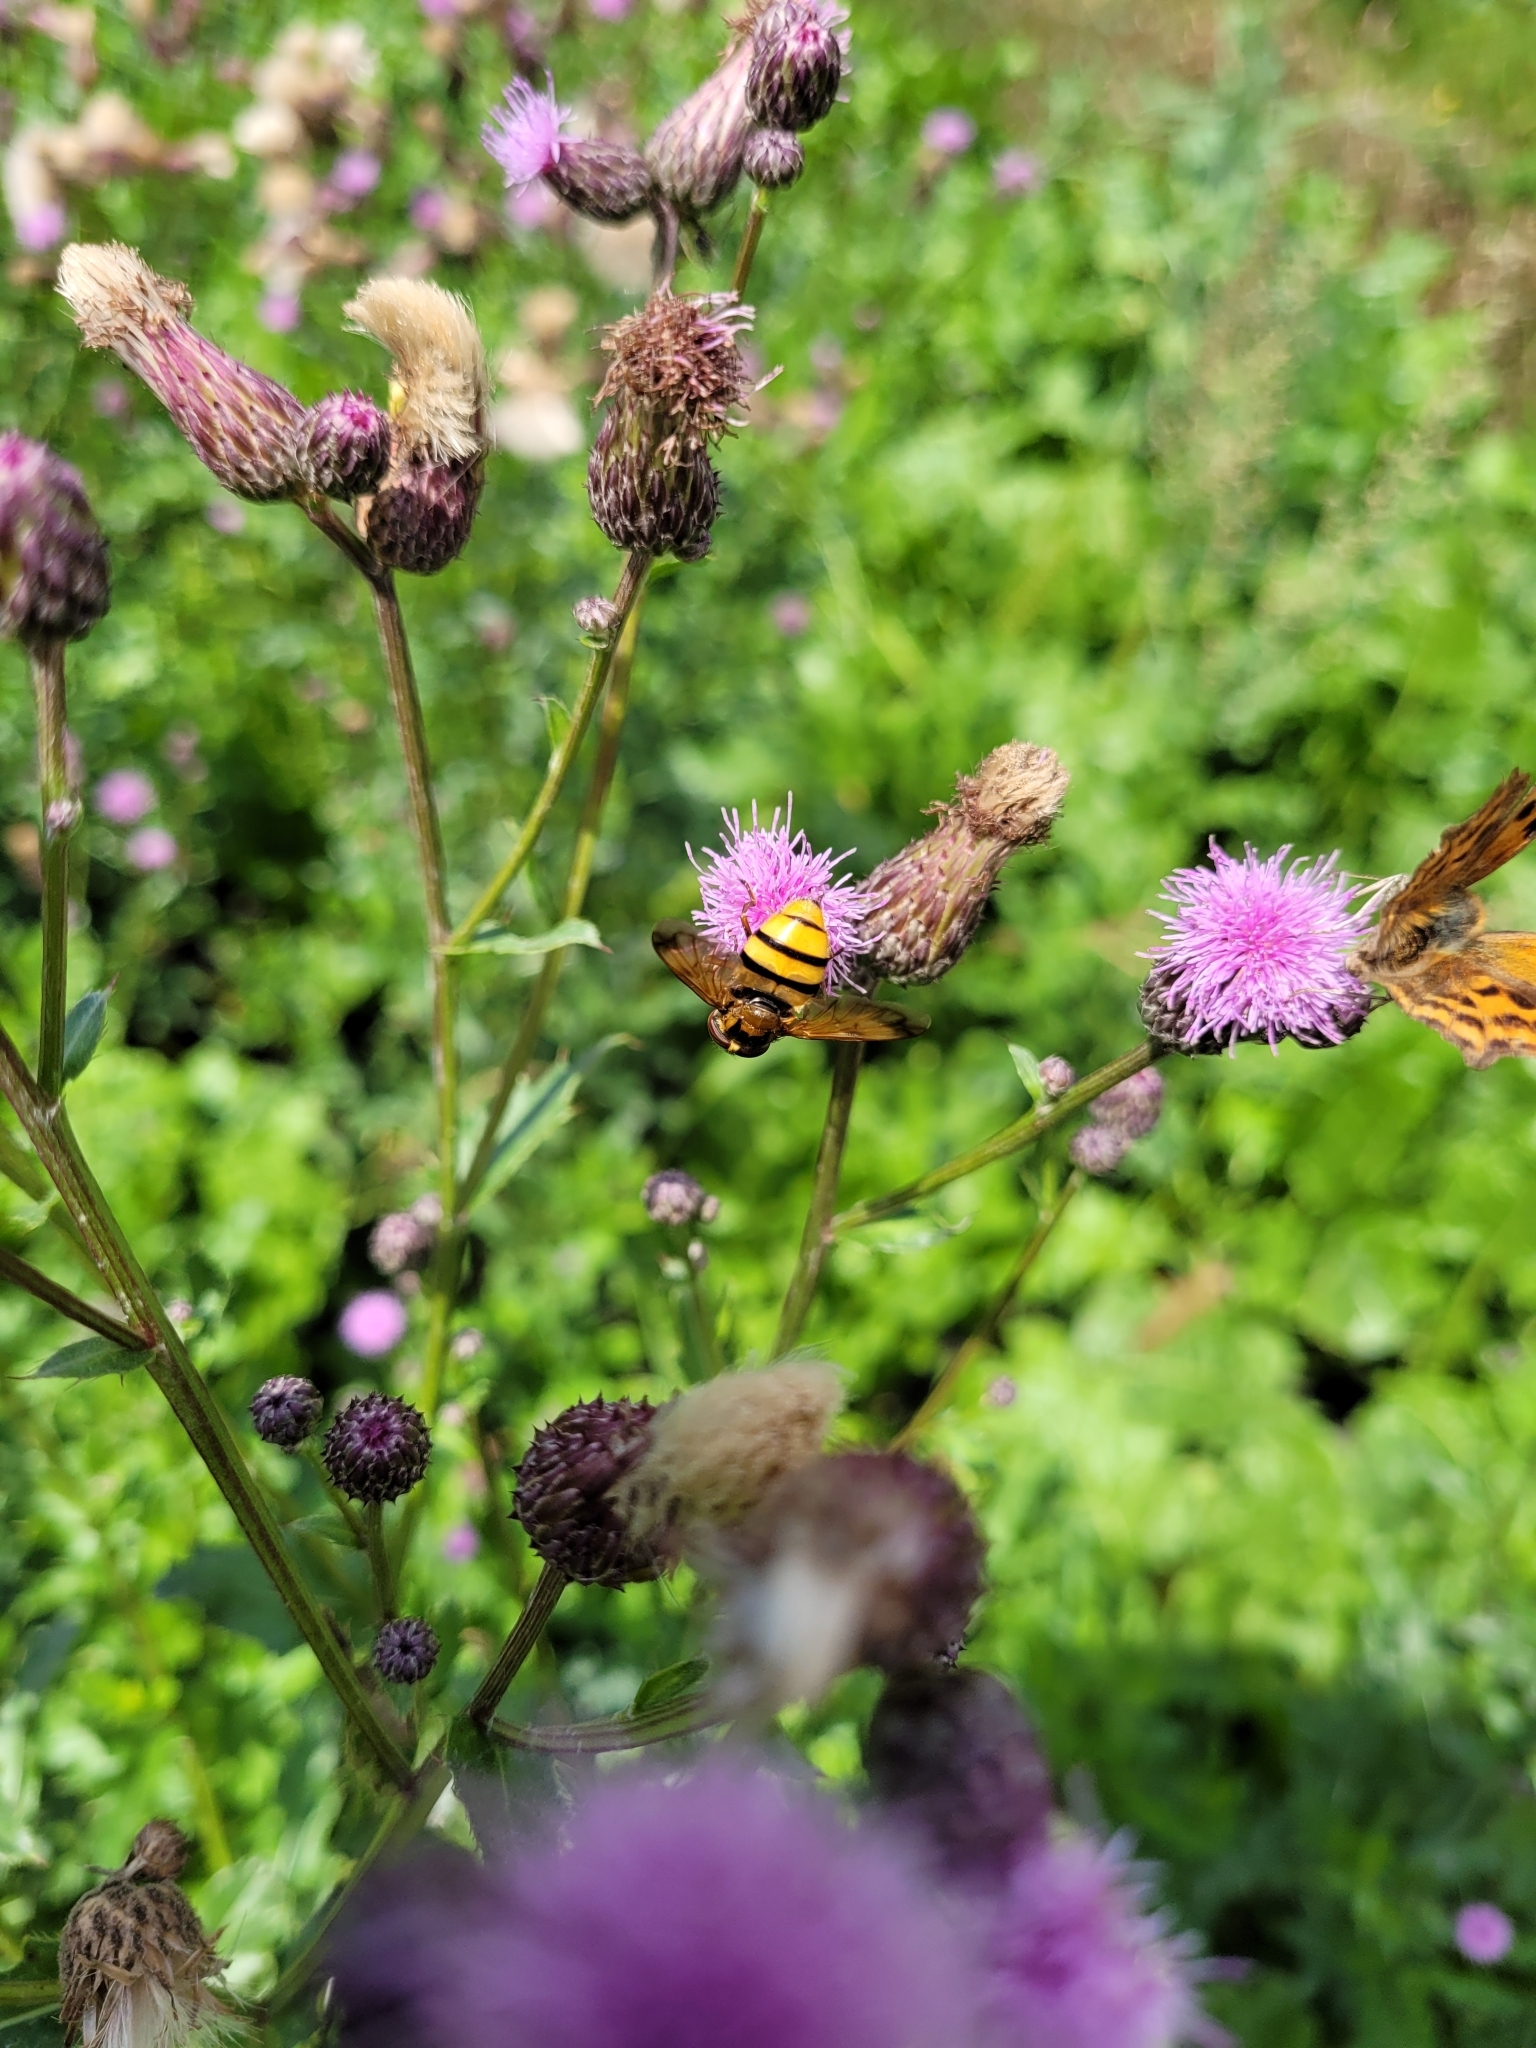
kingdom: Animalia
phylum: Arthropoda
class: Insecta
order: Diptera
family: Syrphidae
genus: Volucella
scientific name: Volucella inanis
